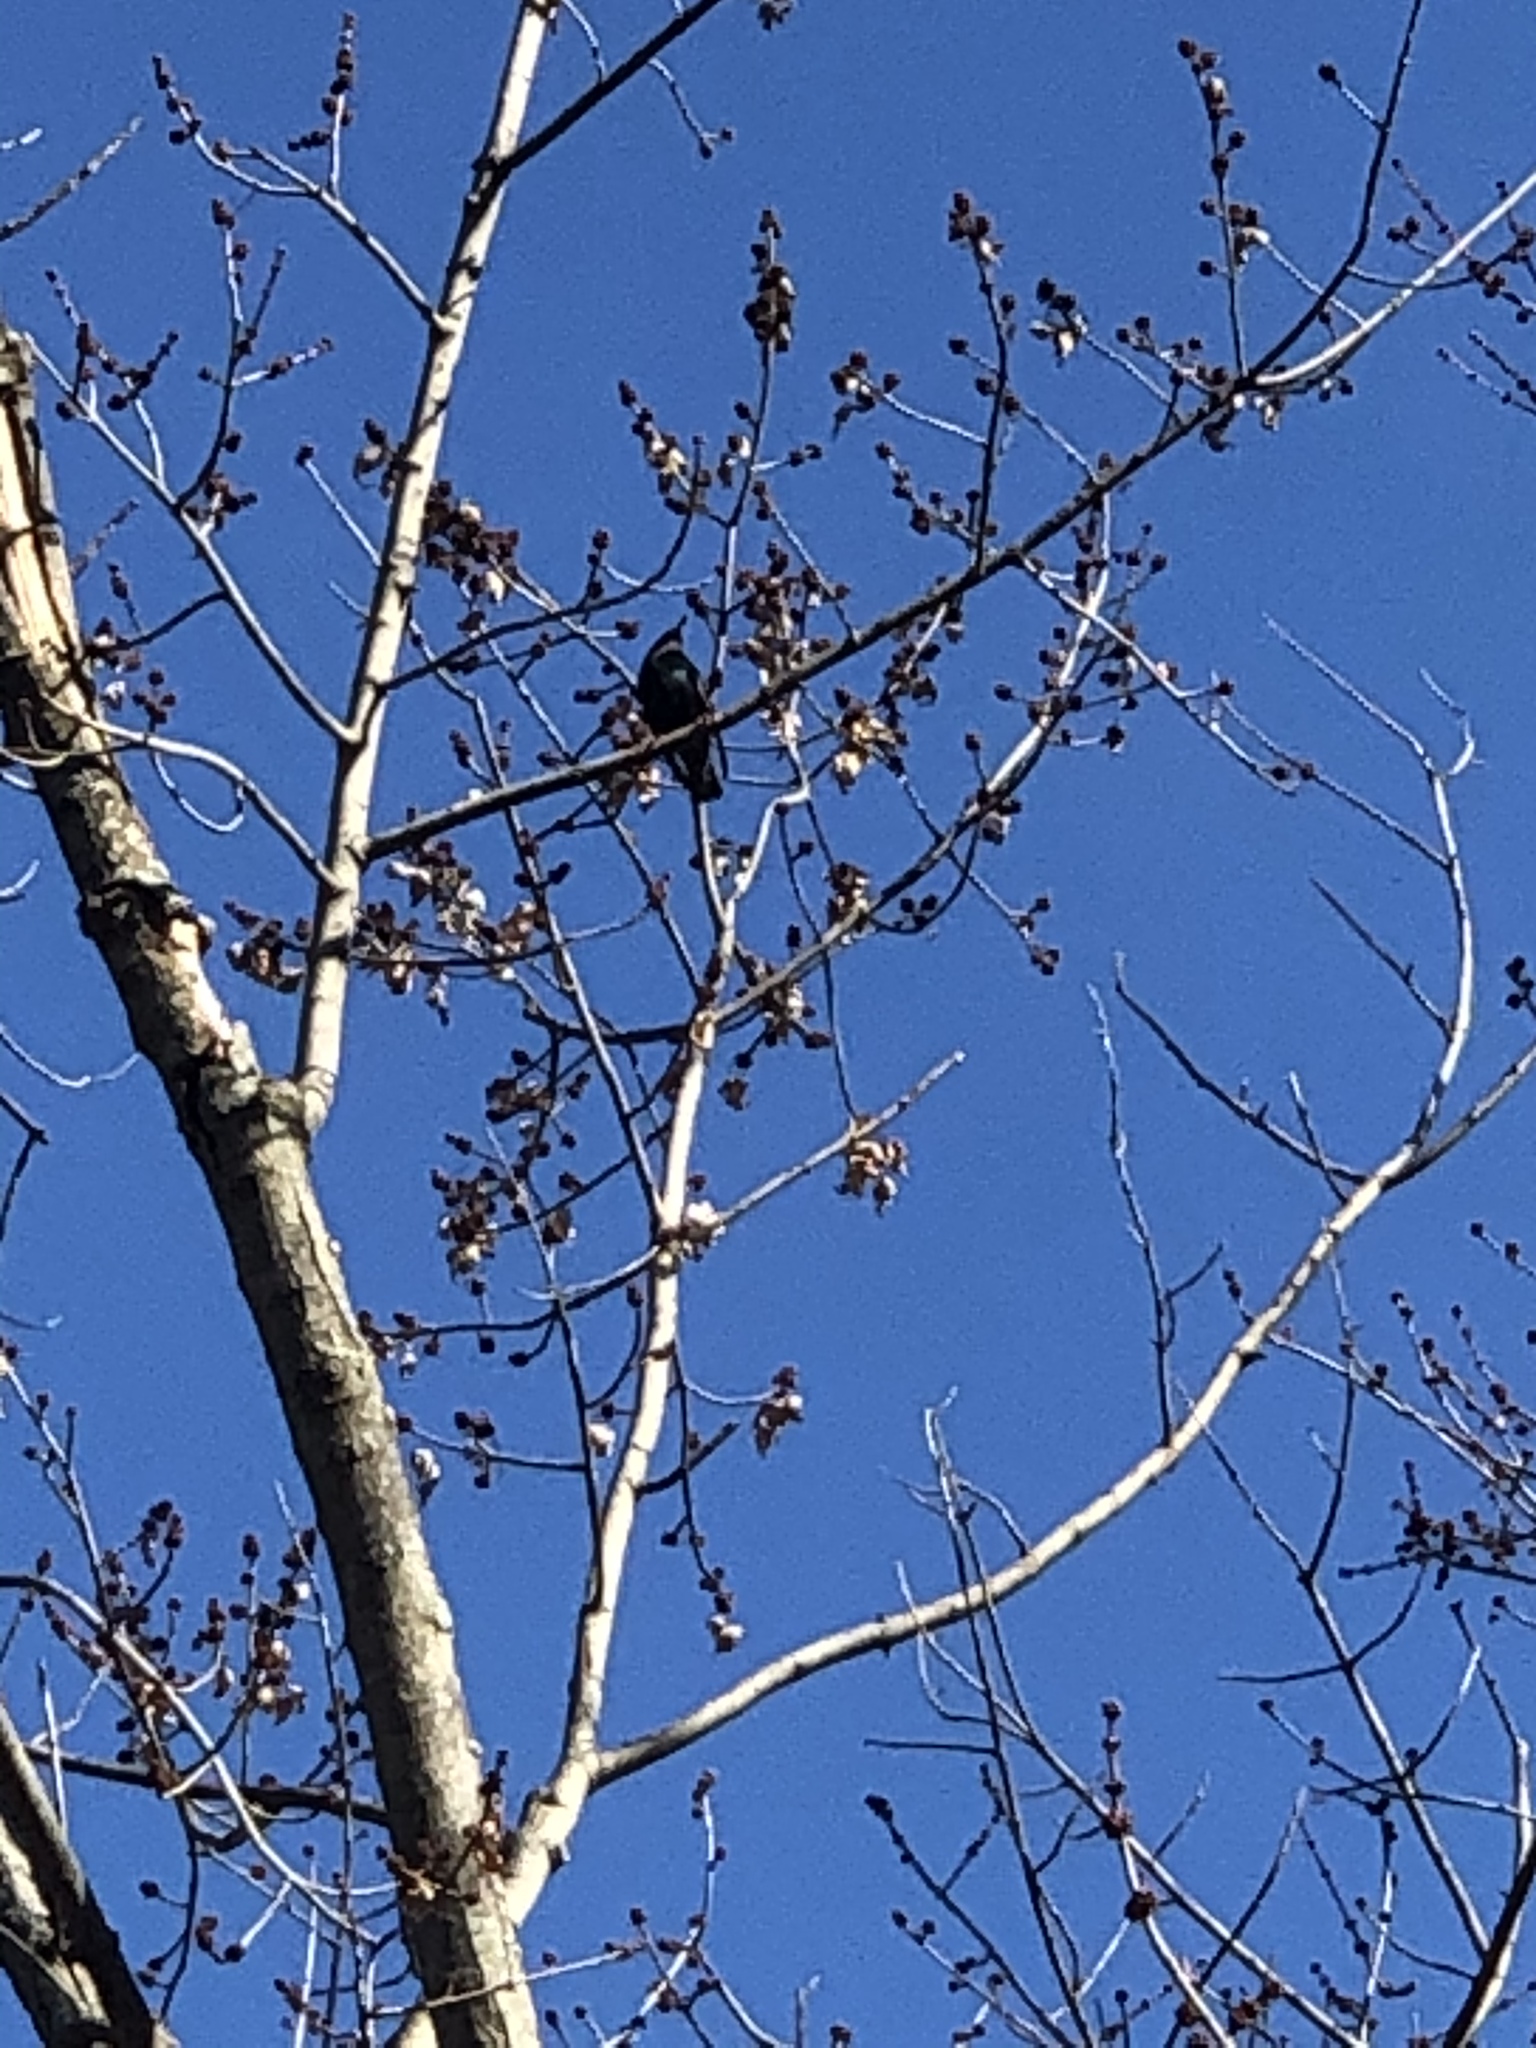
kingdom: Animalia
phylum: Chordata
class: Aves
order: Passeriformes
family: Sturnidae
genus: Sturnus
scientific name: Sturnus vulgaris
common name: Common starling
